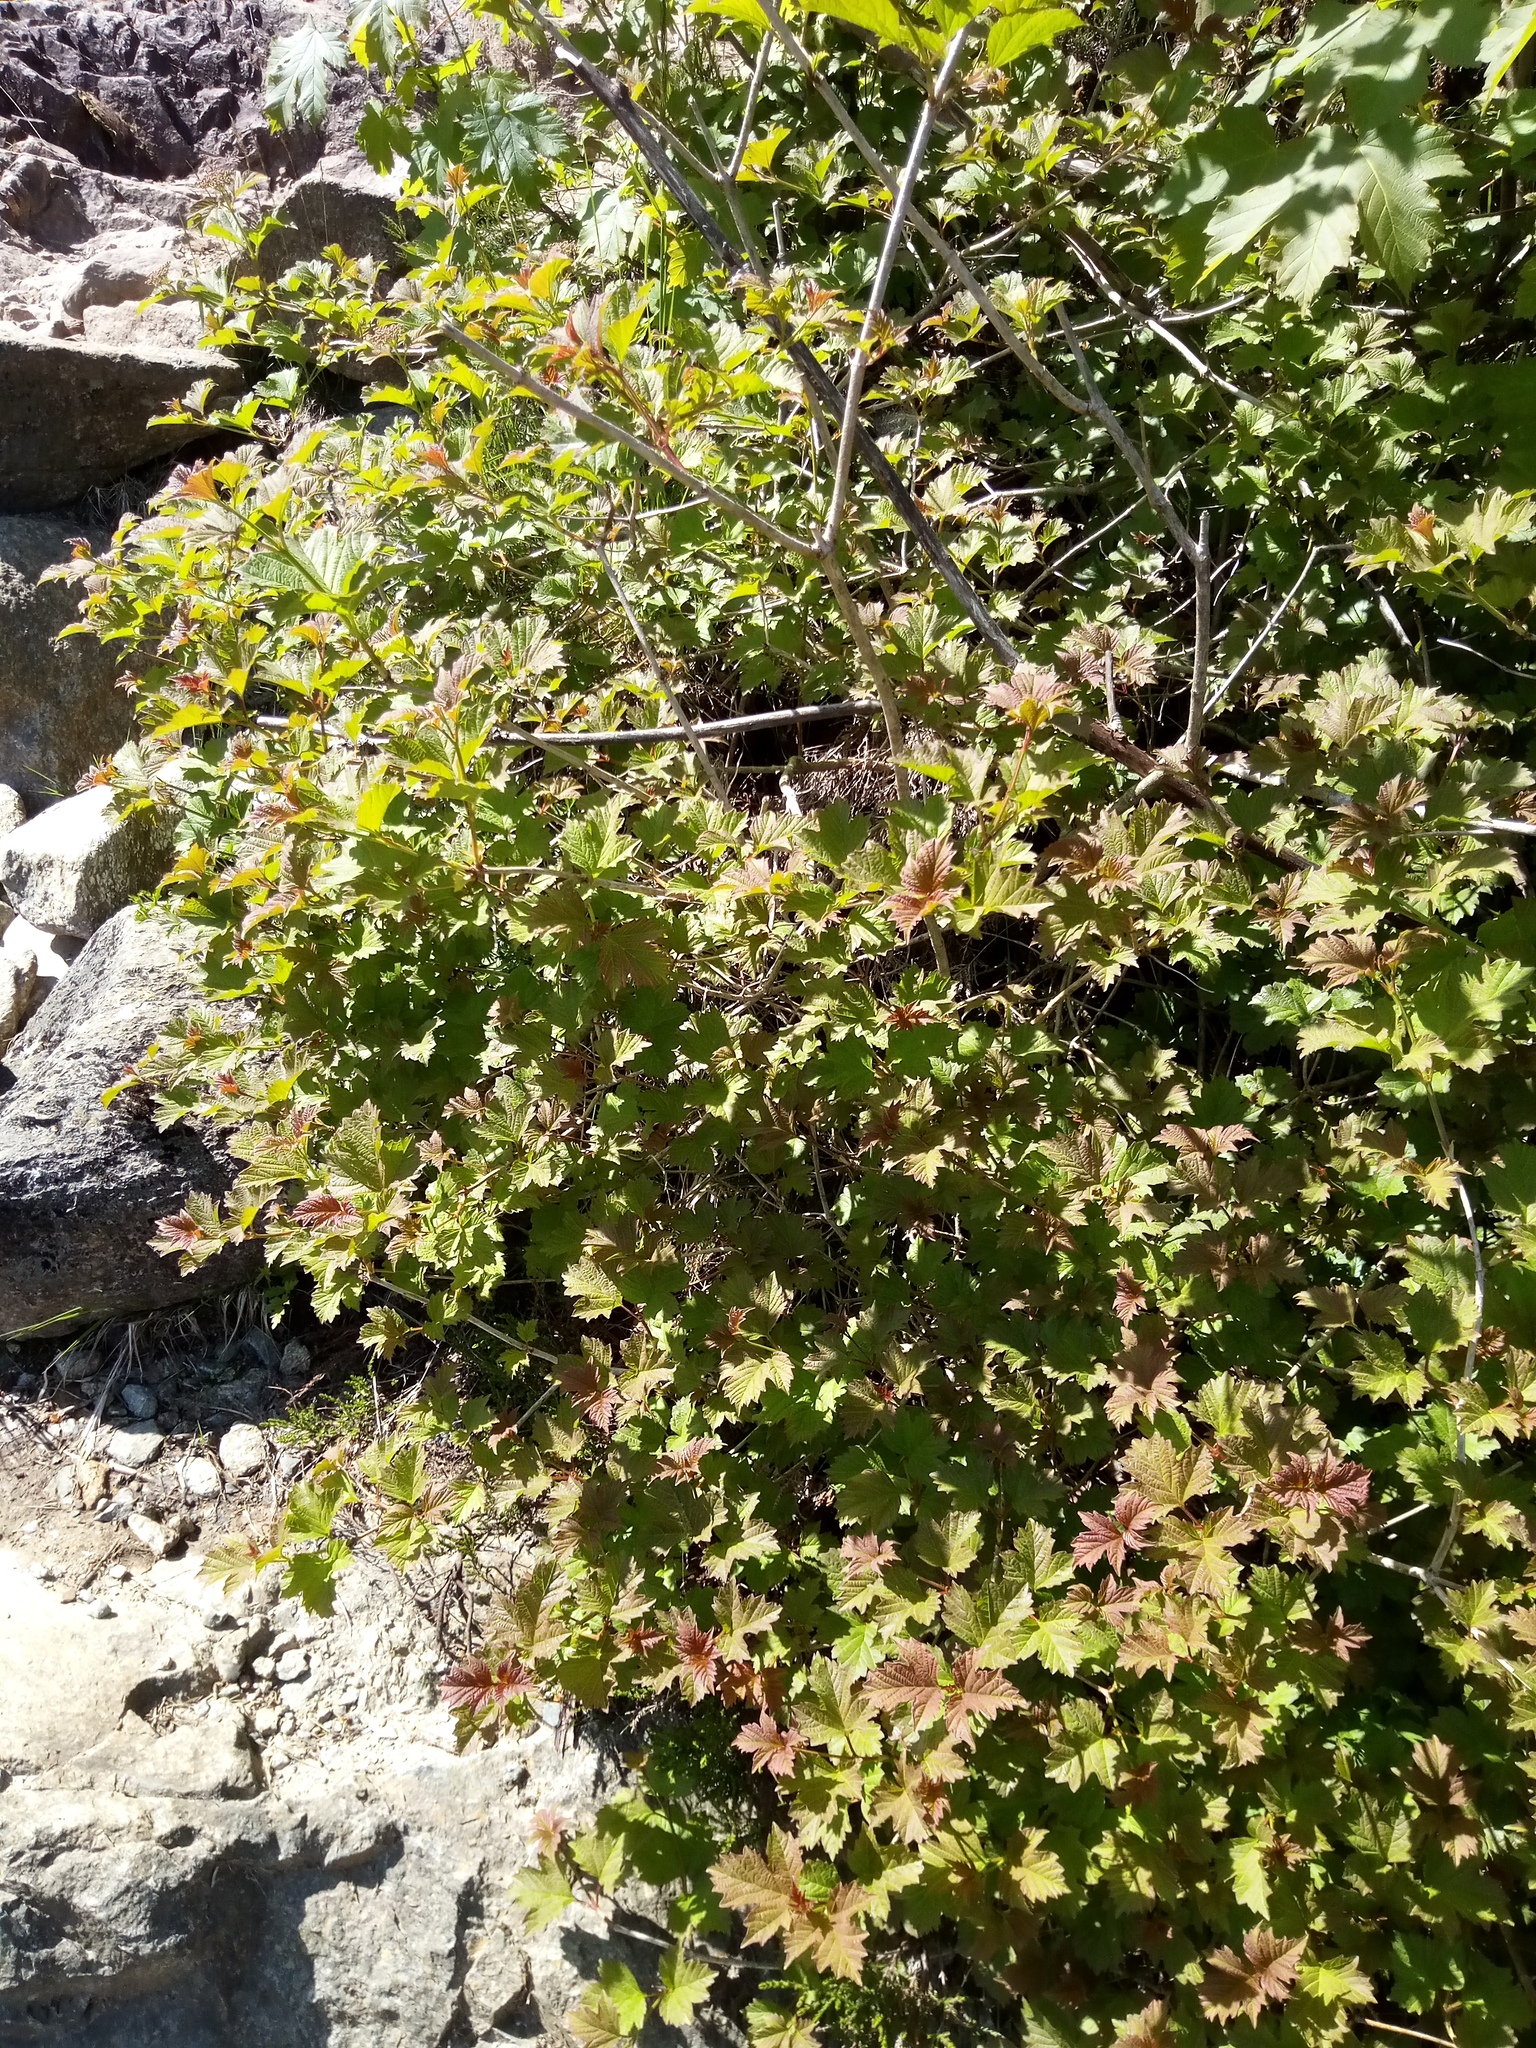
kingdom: Plantae
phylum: Tracheophyta
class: Magnoliopsida
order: Dipsacales
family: Viburnaceae
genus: Viburnum
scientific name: Viburnum opulus
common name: Guelder-rose
